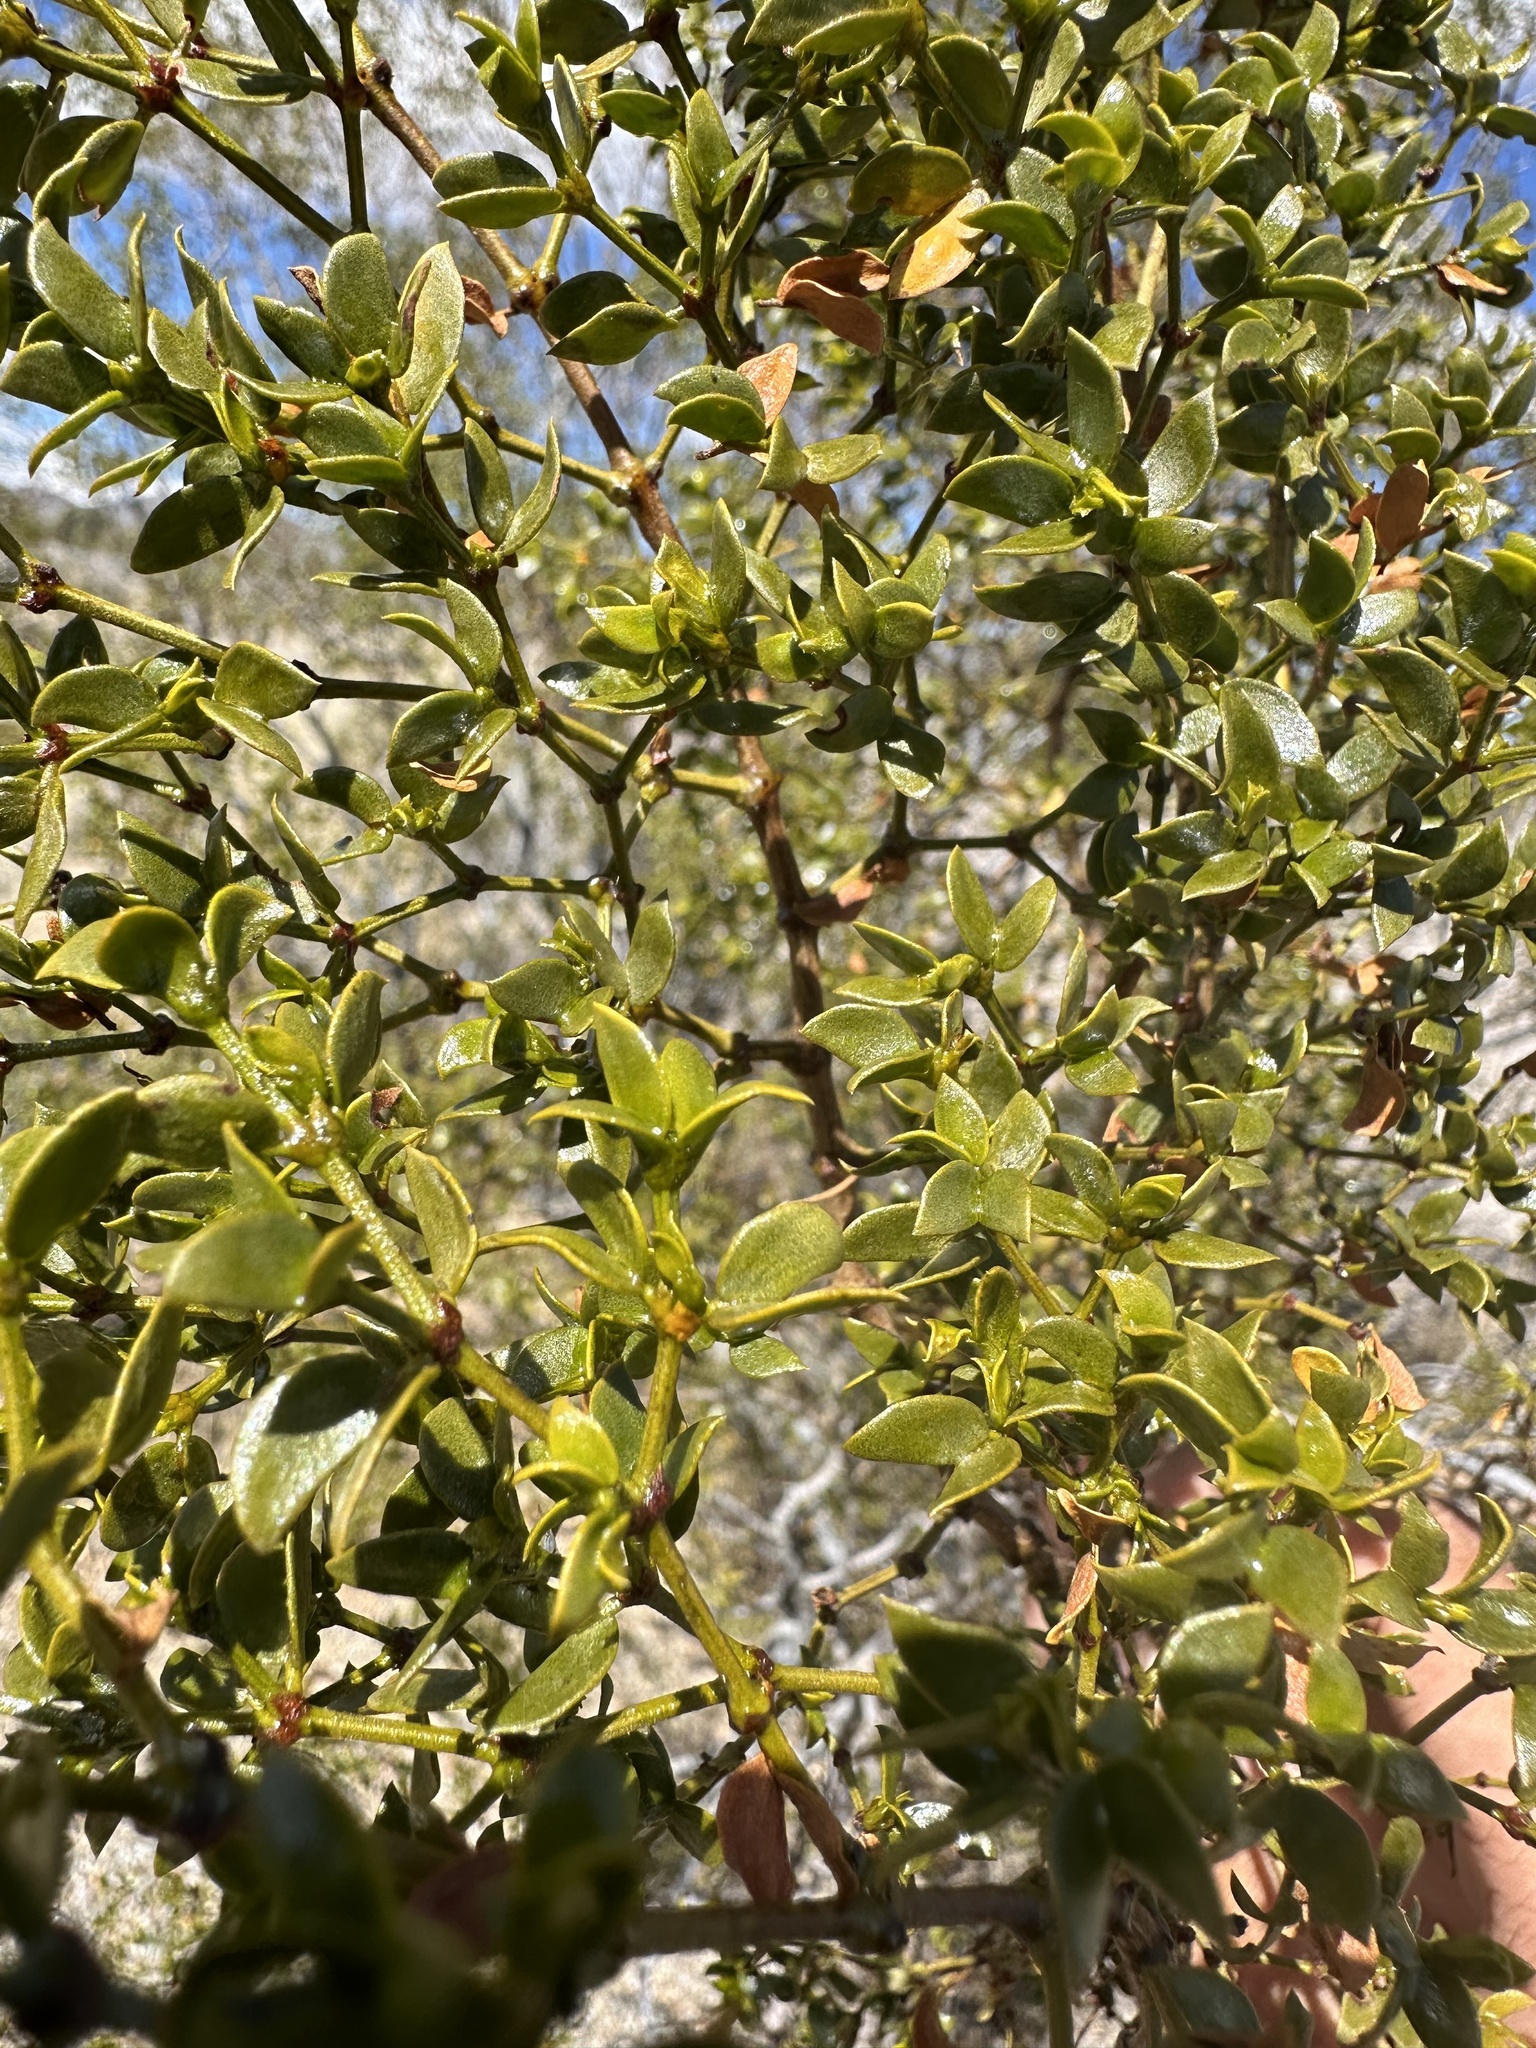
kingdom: Plantae
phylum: Tracheophyta
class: Magnoliopsida
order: Zygophyllales
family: Zygophyllaceae
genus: Larrea
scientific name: Larrea tridentata
